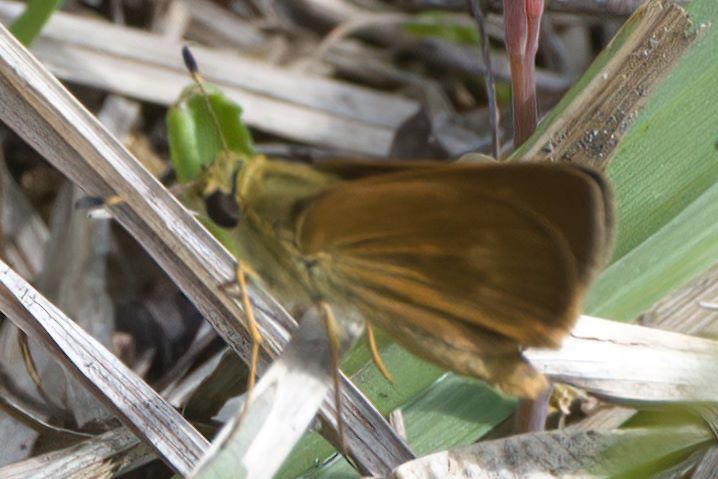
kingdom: Animalia
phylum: Arthropoda
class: Insecta
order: Lepidoptera
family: Hesperiidae
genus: Polites
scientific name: Polites otho
